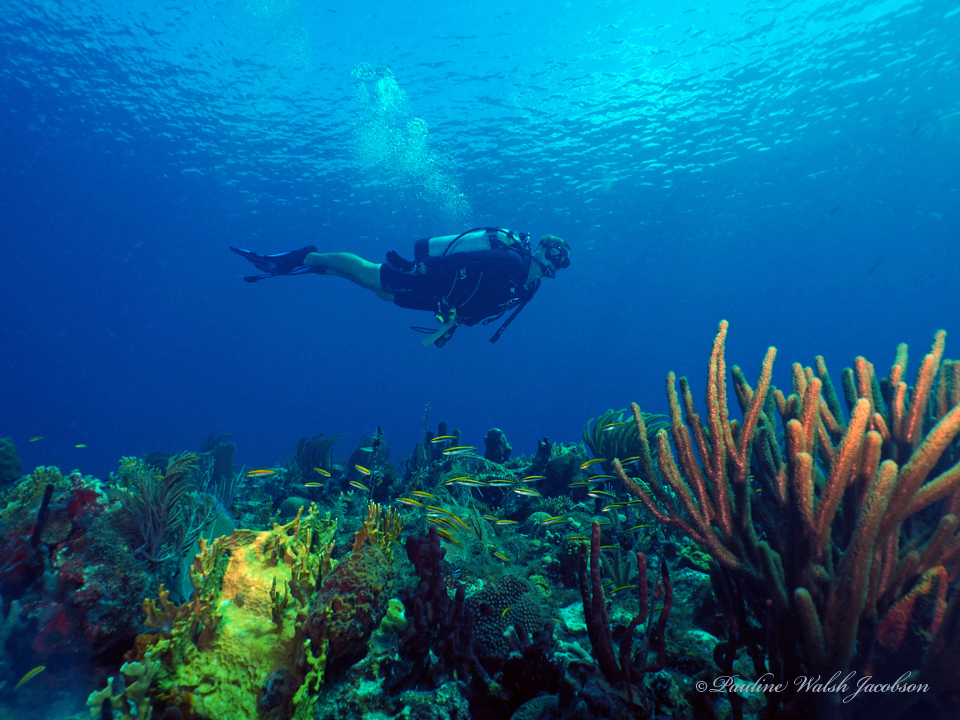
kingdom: Animalia
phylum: Chordata
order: Perciformes
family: Labridae
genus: Thalassoma
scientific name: Thalassoma bifasciatum
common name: Bluehead wrasse
